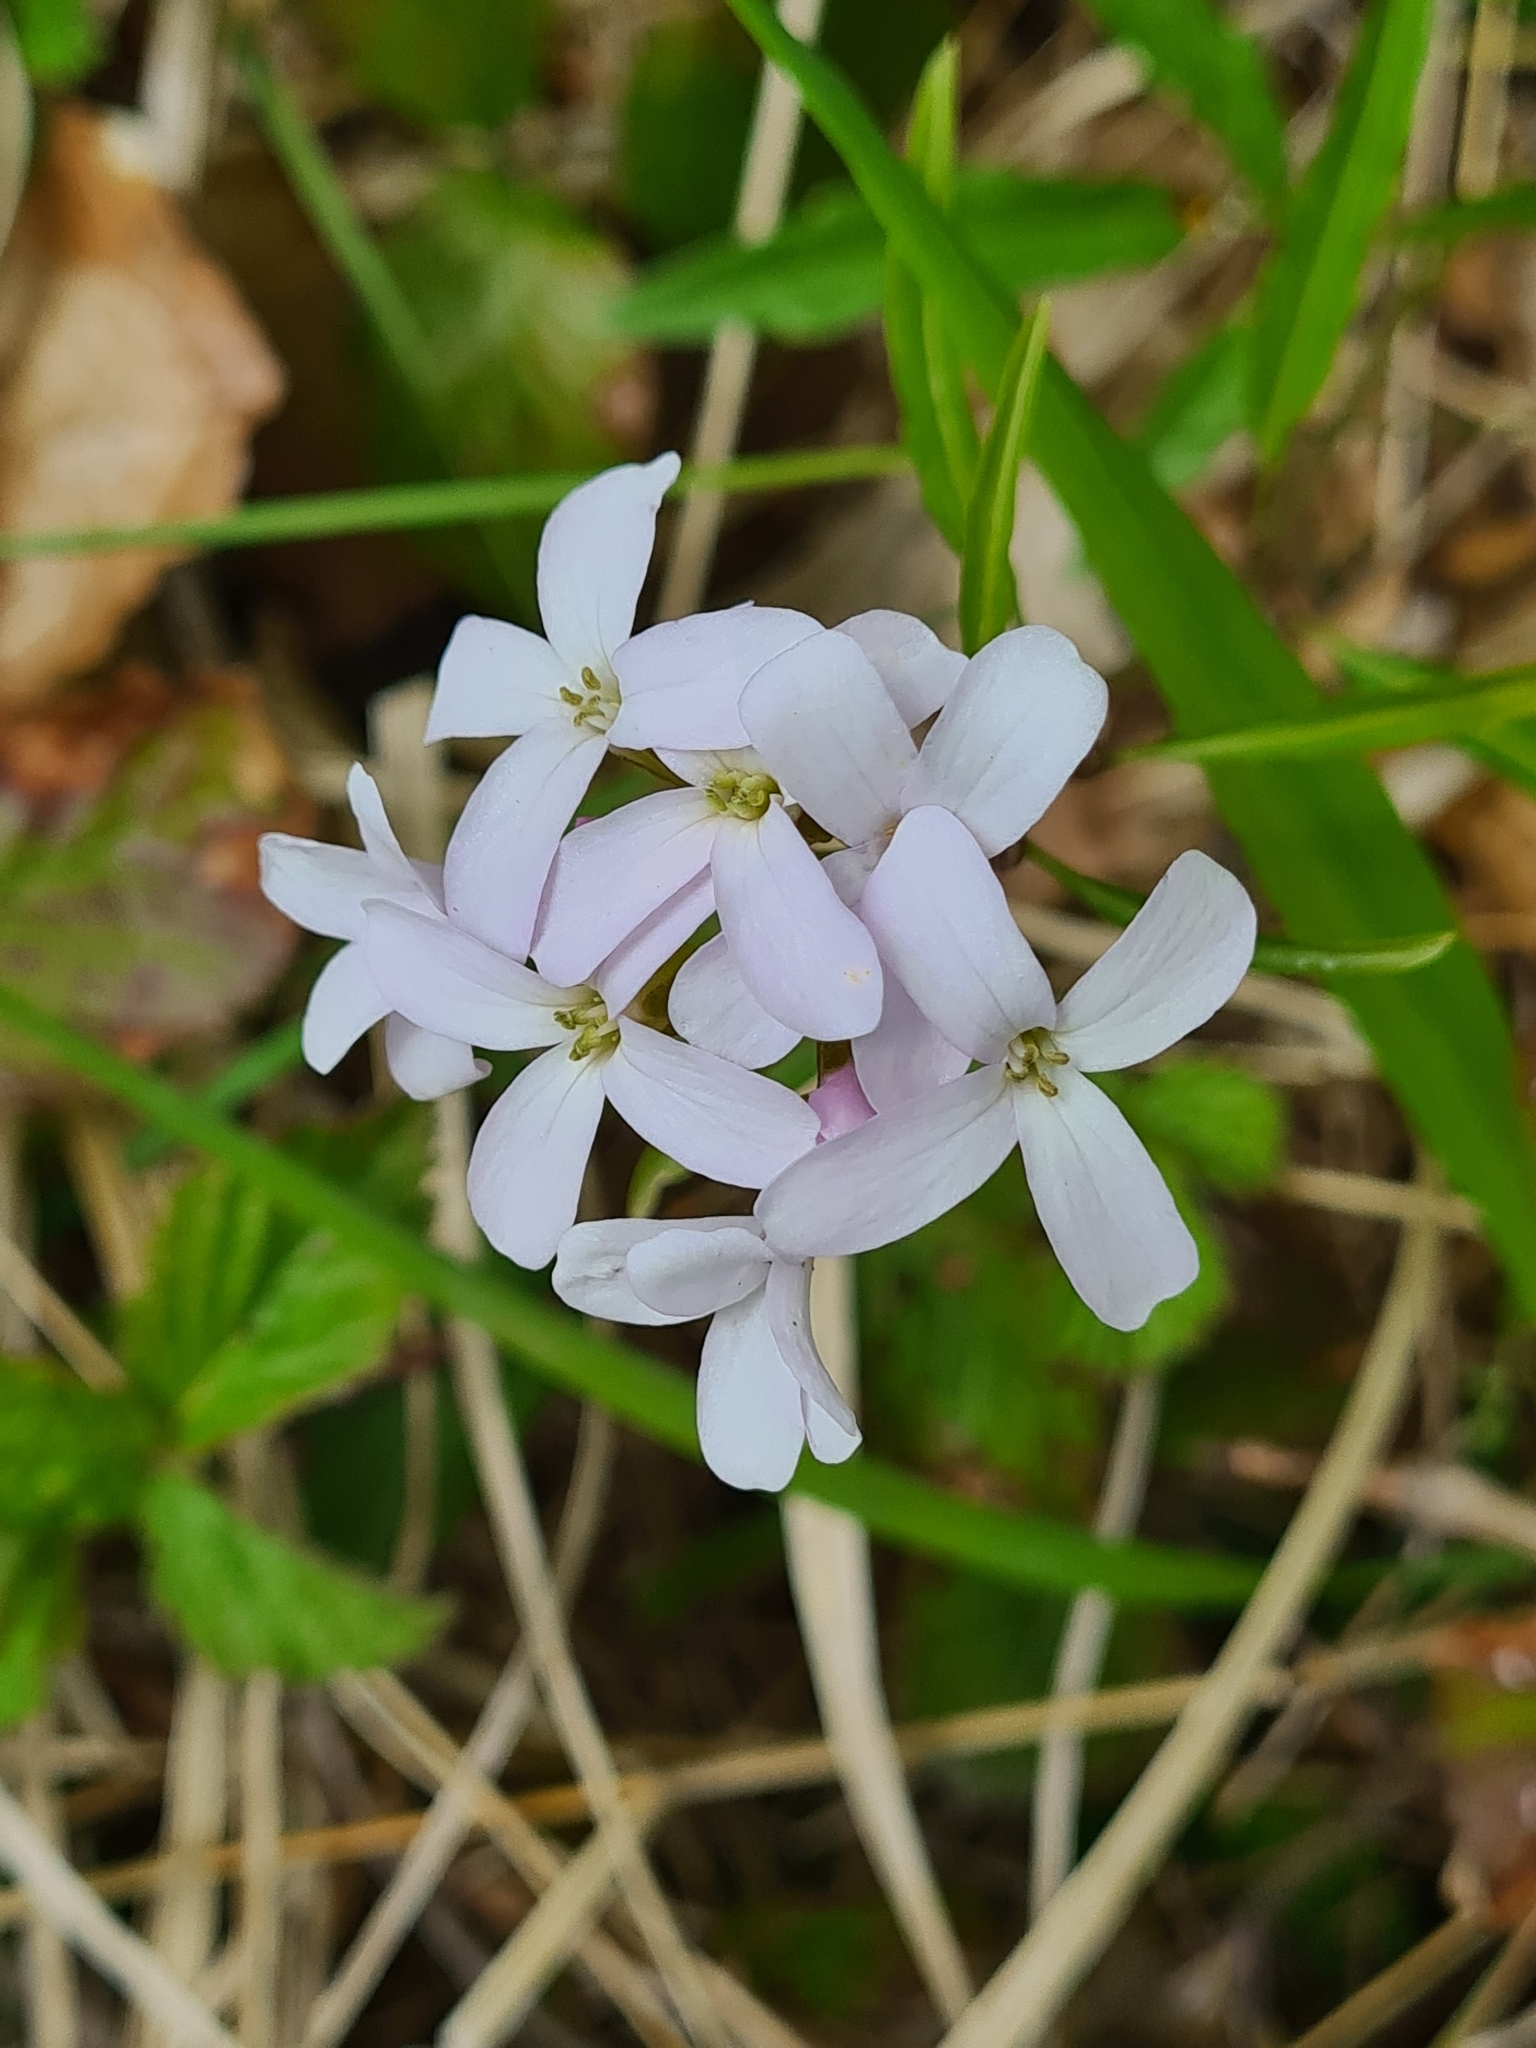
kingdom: Plantae
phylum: Tracheophyta
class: Magnoliopsida
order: Brassicales
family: Brassicaceae
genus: Cardamine
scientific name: Cardamine bulbifera
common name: Coralroot bittercress
